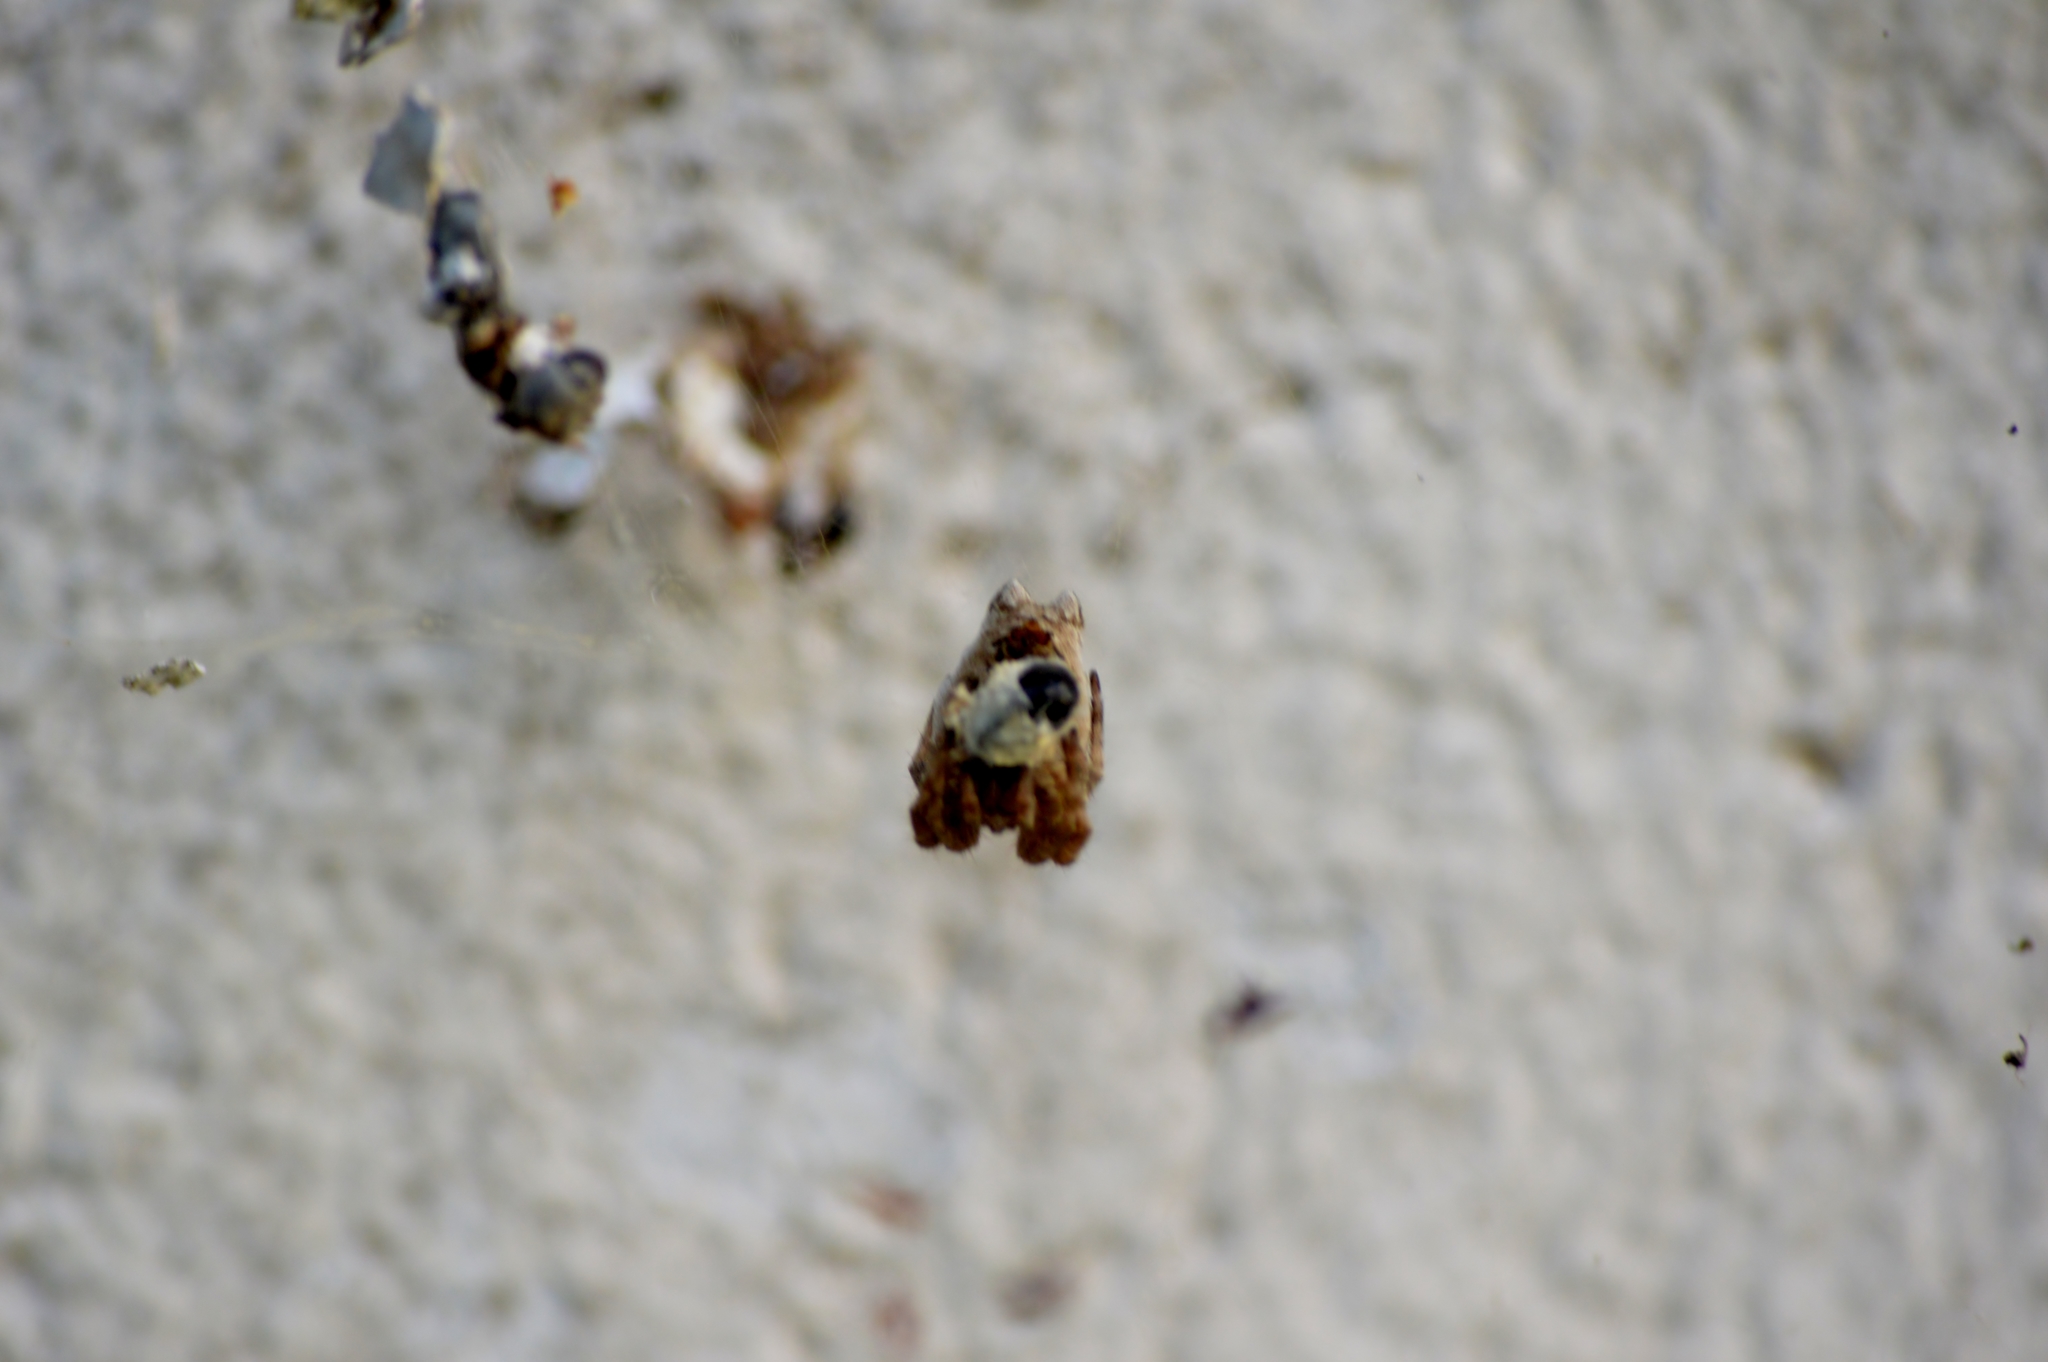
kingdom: Animalia
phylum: Arthropoda
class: Arachnida
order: Araneae
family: Araneidae
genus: Cyrtophora
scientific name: Cyrtophora citricola
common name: Orb weavers
